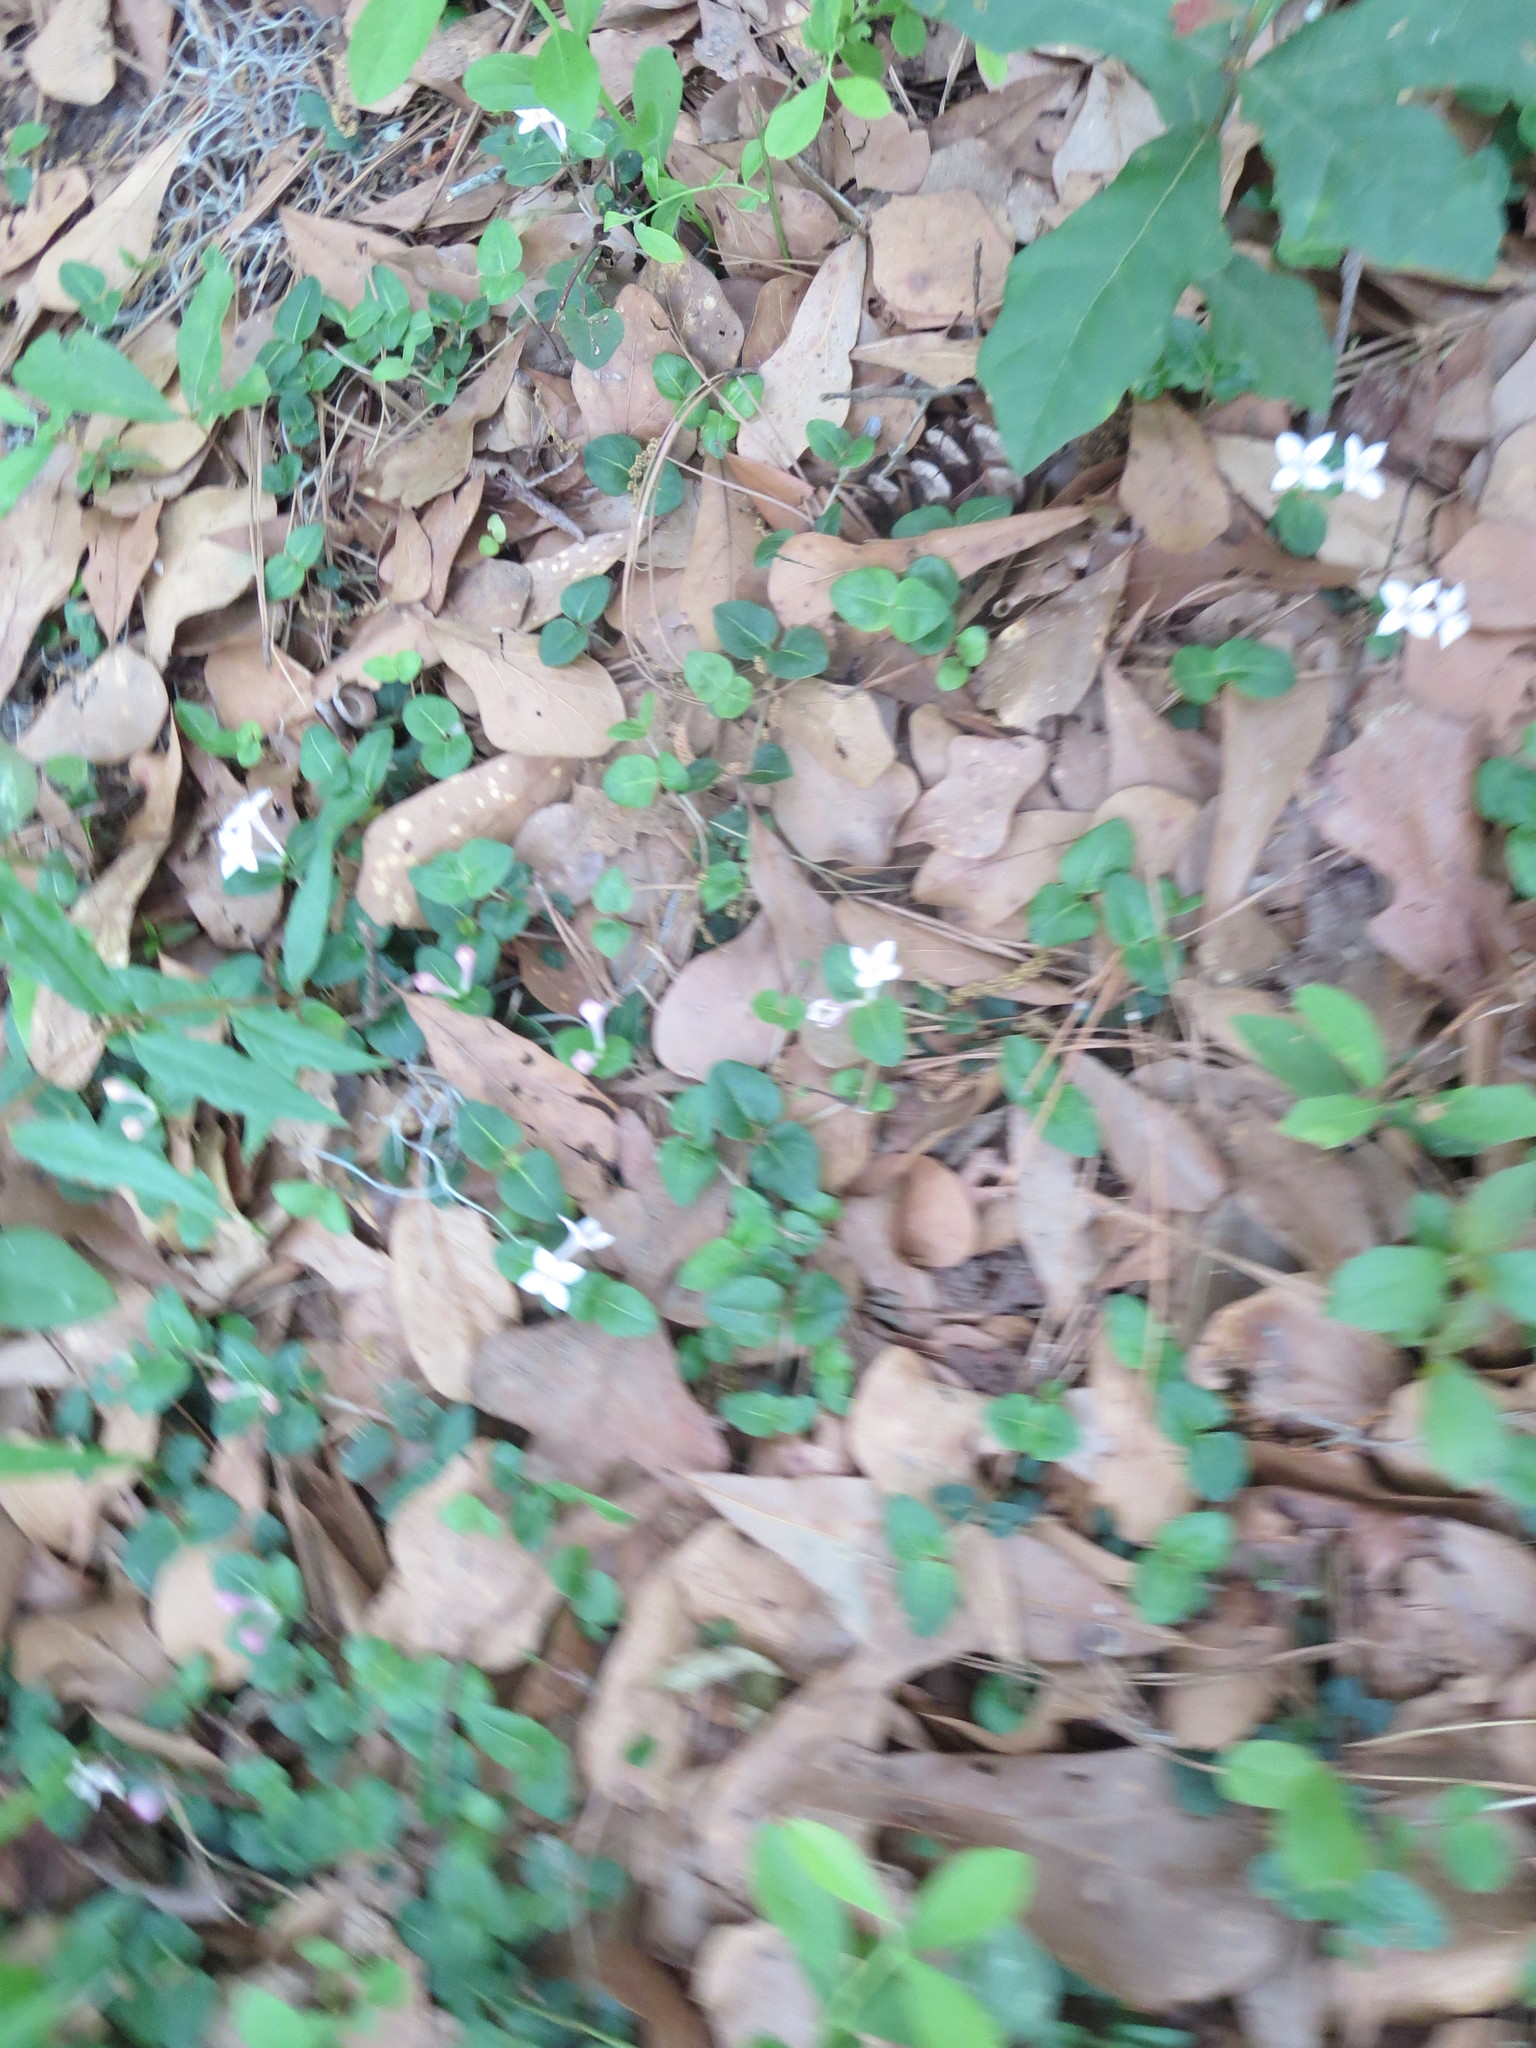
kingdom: Plantae
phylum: Tracheophyta
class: Magnoliopsida
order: Gentianales
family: Rubiaceae
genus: Mitchella
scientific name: Mitchella repens
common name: Partridge-berry
